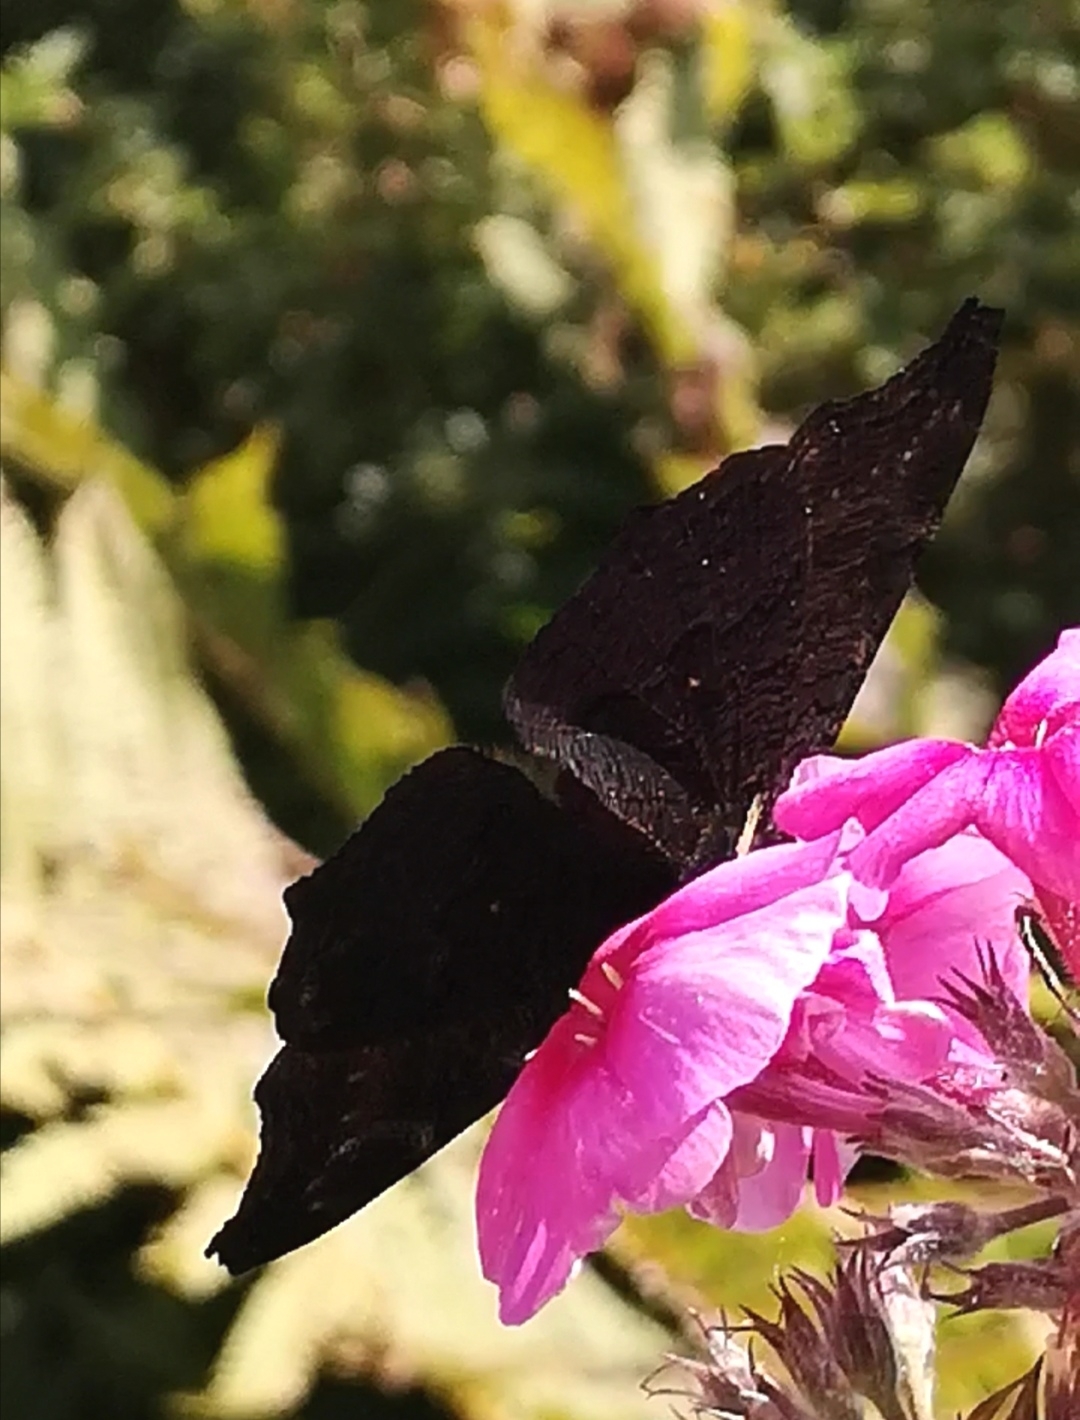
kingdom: Animalia
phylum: Arthropoda
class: Insecta
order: Lepidoptera
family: Nymphalidae
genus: Aglais
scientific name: Aglais io
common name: Peacock
